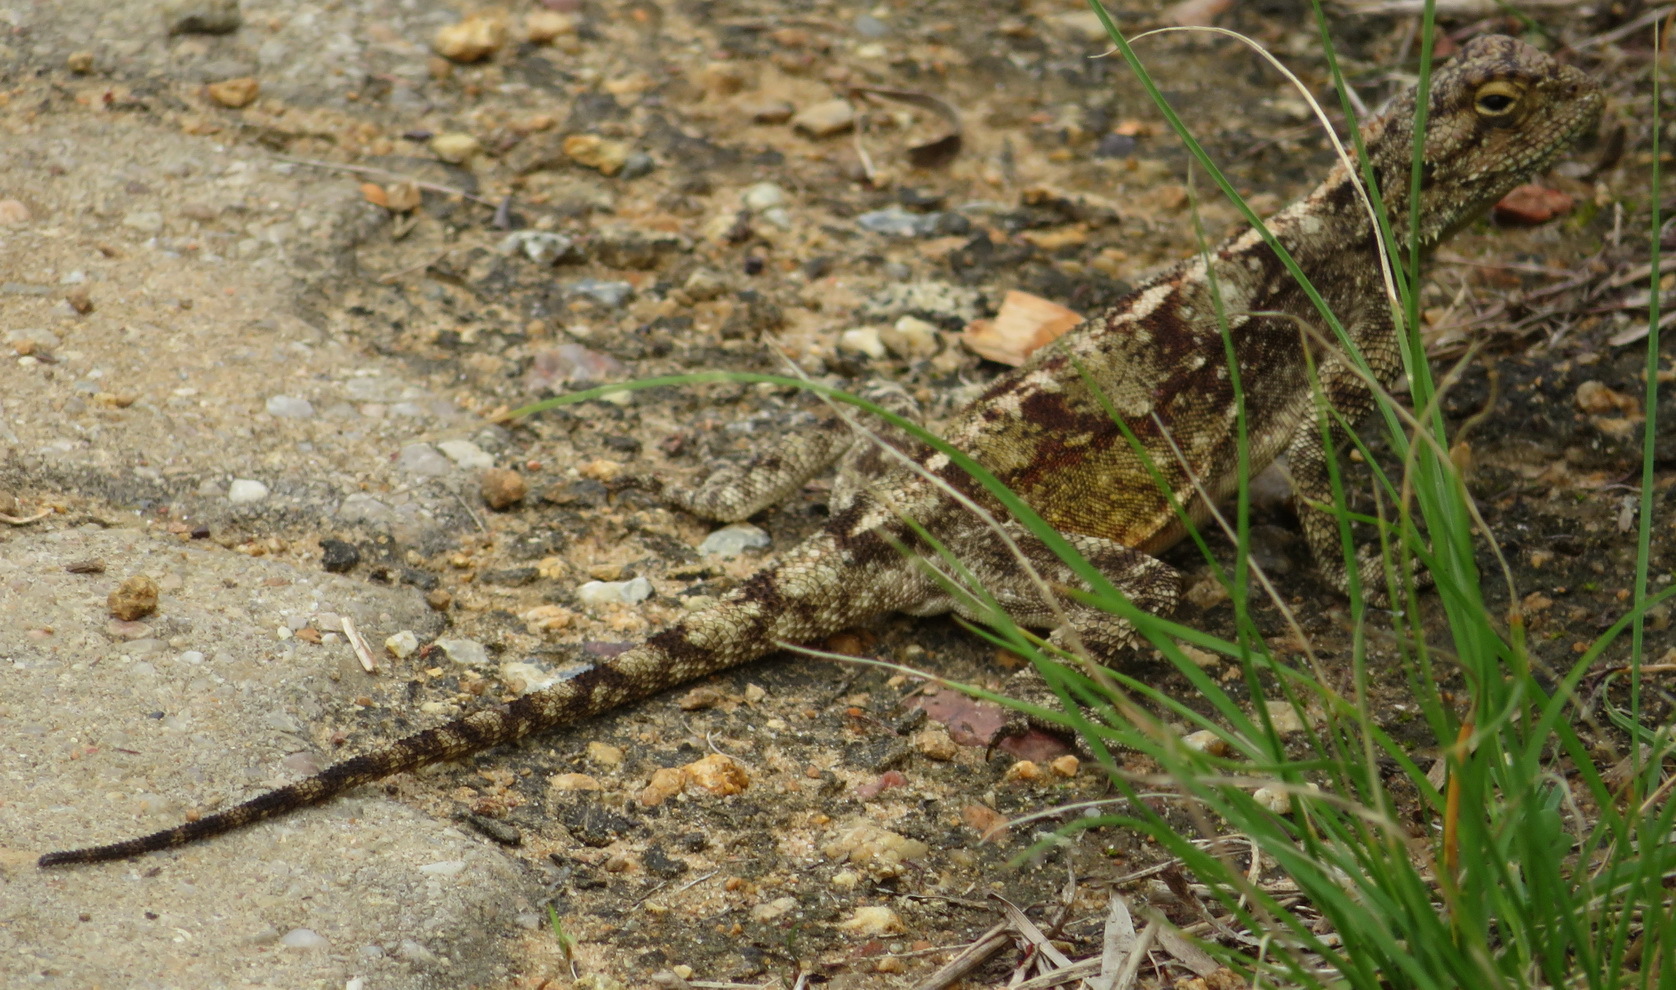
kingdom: Animalia
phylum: Chordata
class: Squamata
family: Agamidae
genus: Agama
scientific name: Agama atra
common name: Southern african rock agama
